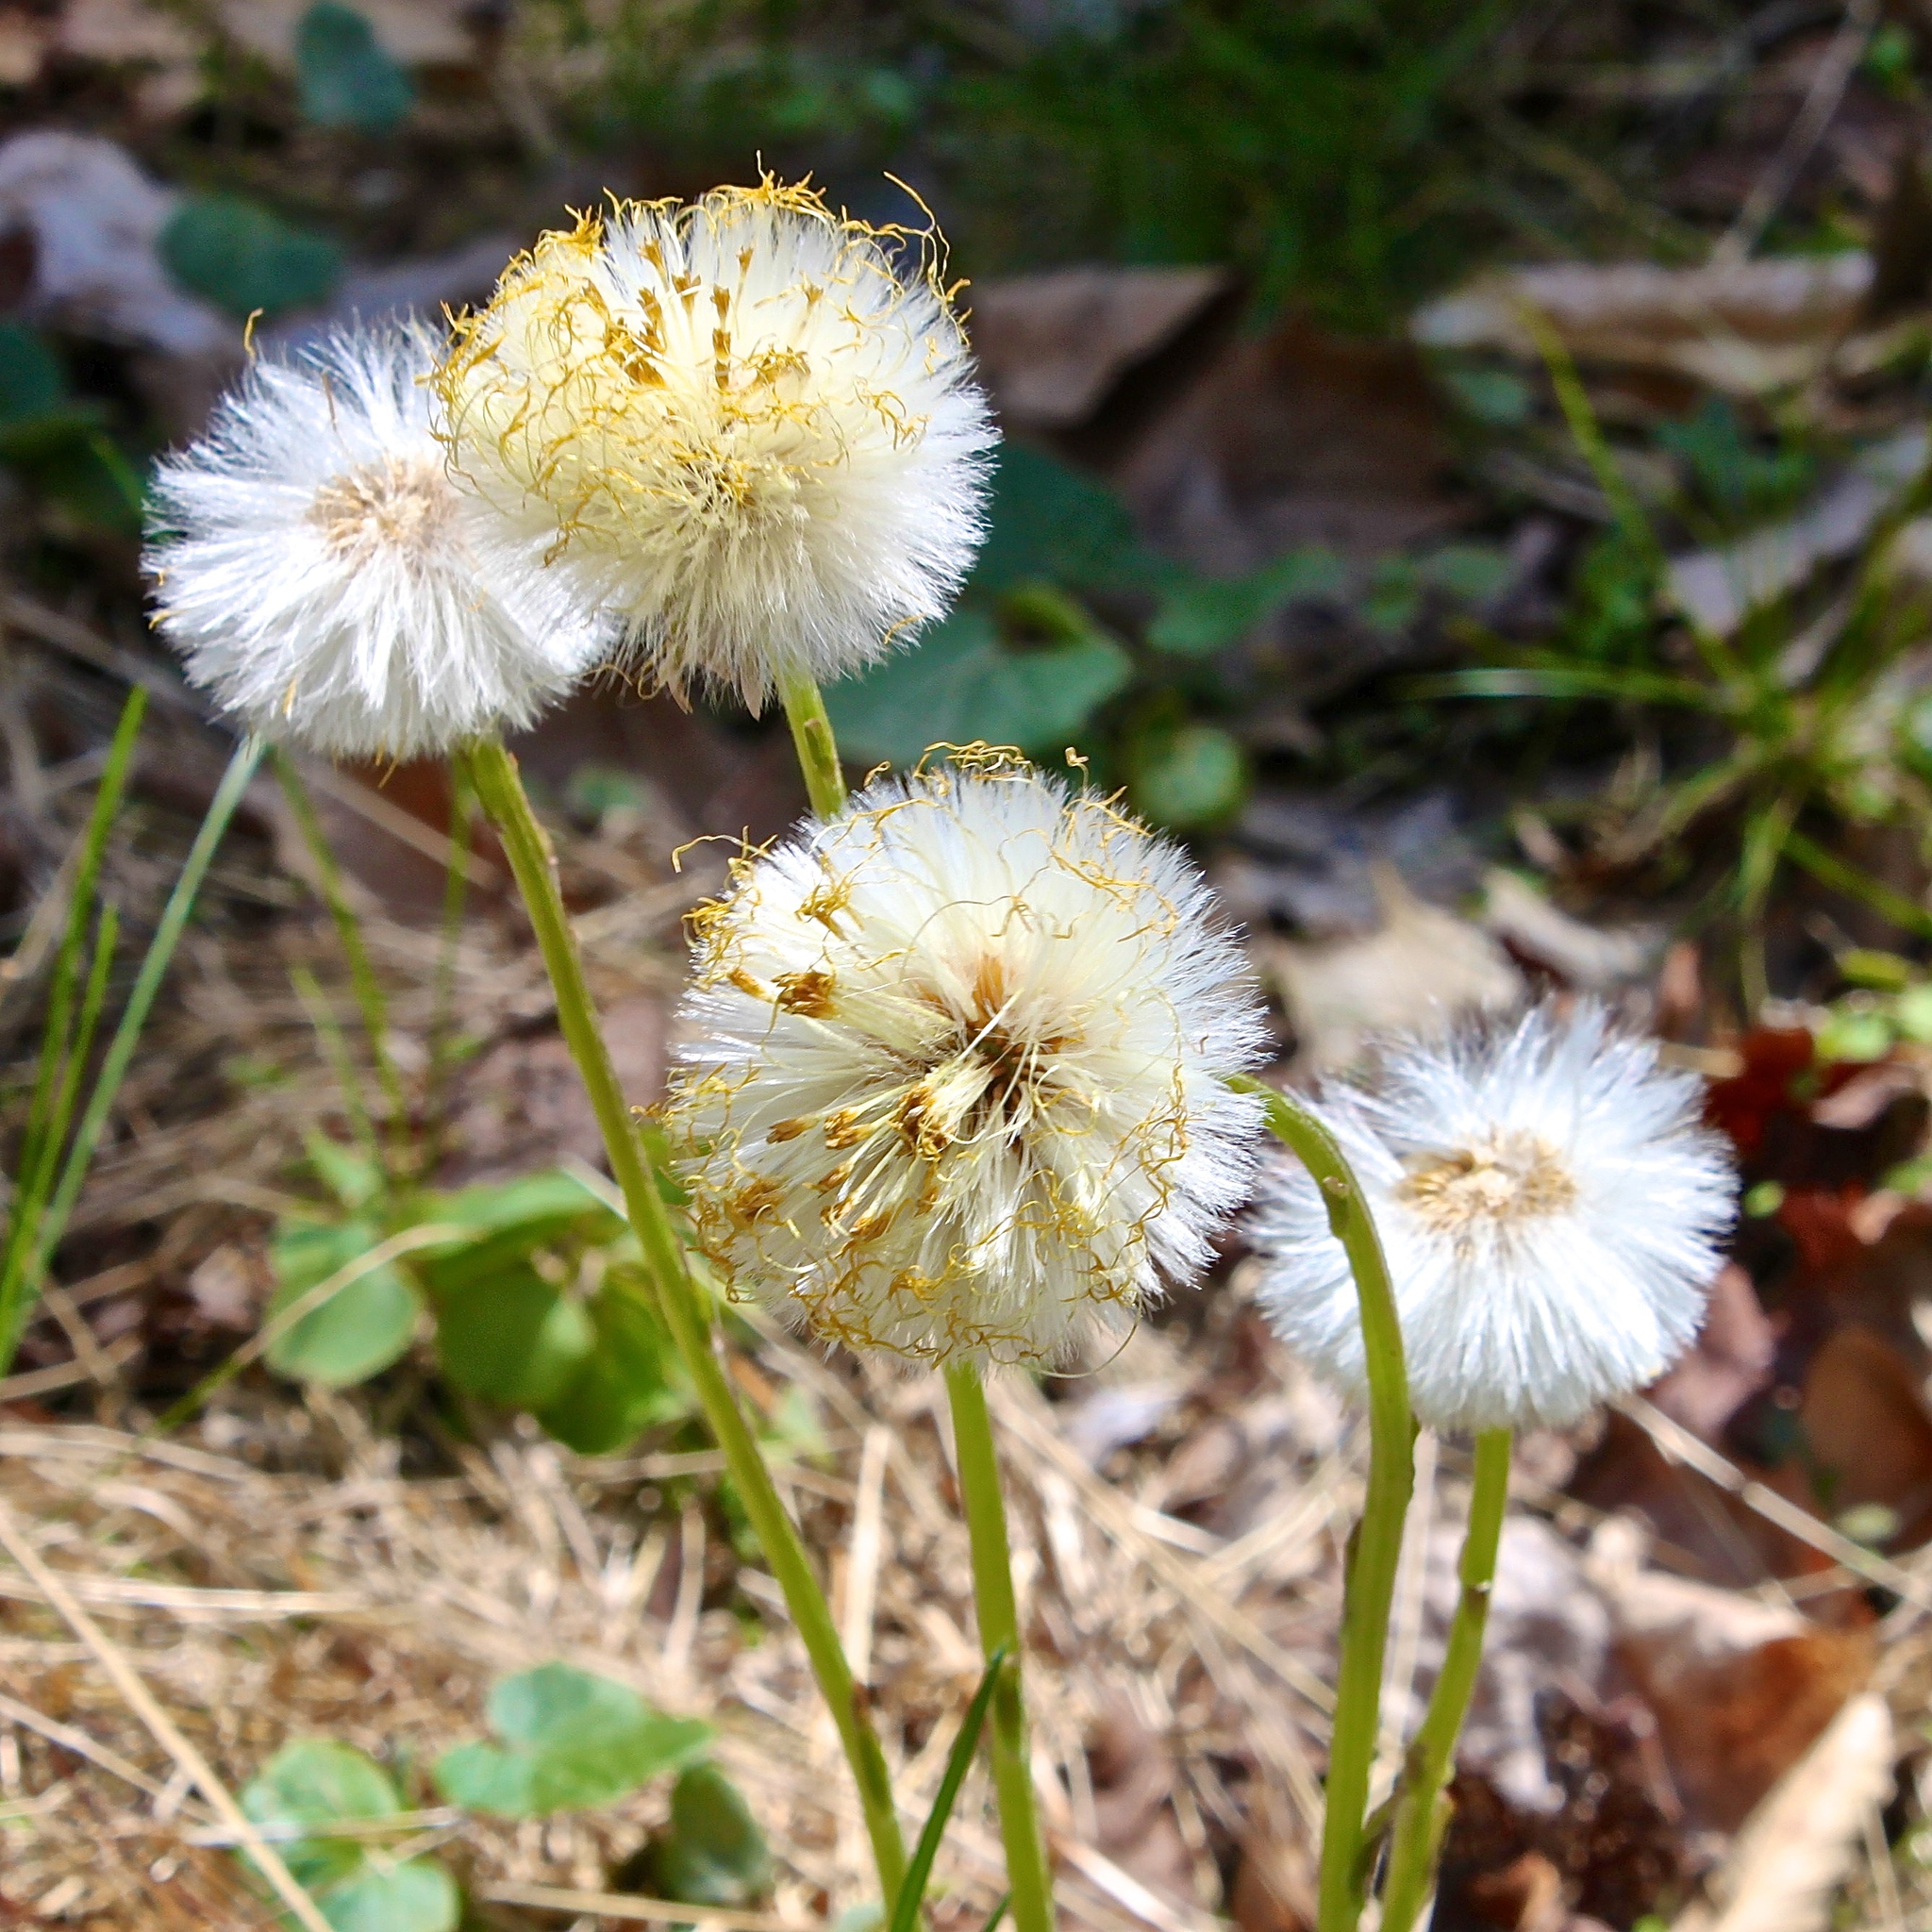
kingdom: Plantae
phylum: Tracheophyta
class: Magnoliopsida
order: Asterales
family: Asteraceae
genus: Tussilago
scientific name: Tussilago farfara
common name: Coltsfoot
